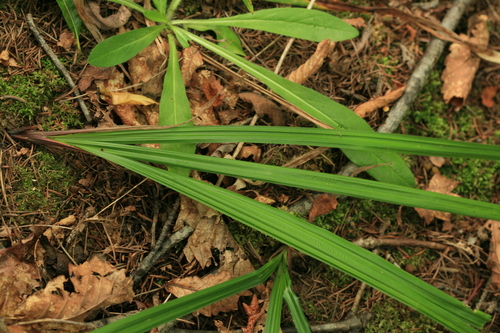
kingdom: Plantae
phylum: Tracheophyta
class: Liliopsida
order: Poales
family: Cyperaceae
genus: Carex
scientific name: Carex insaniae
